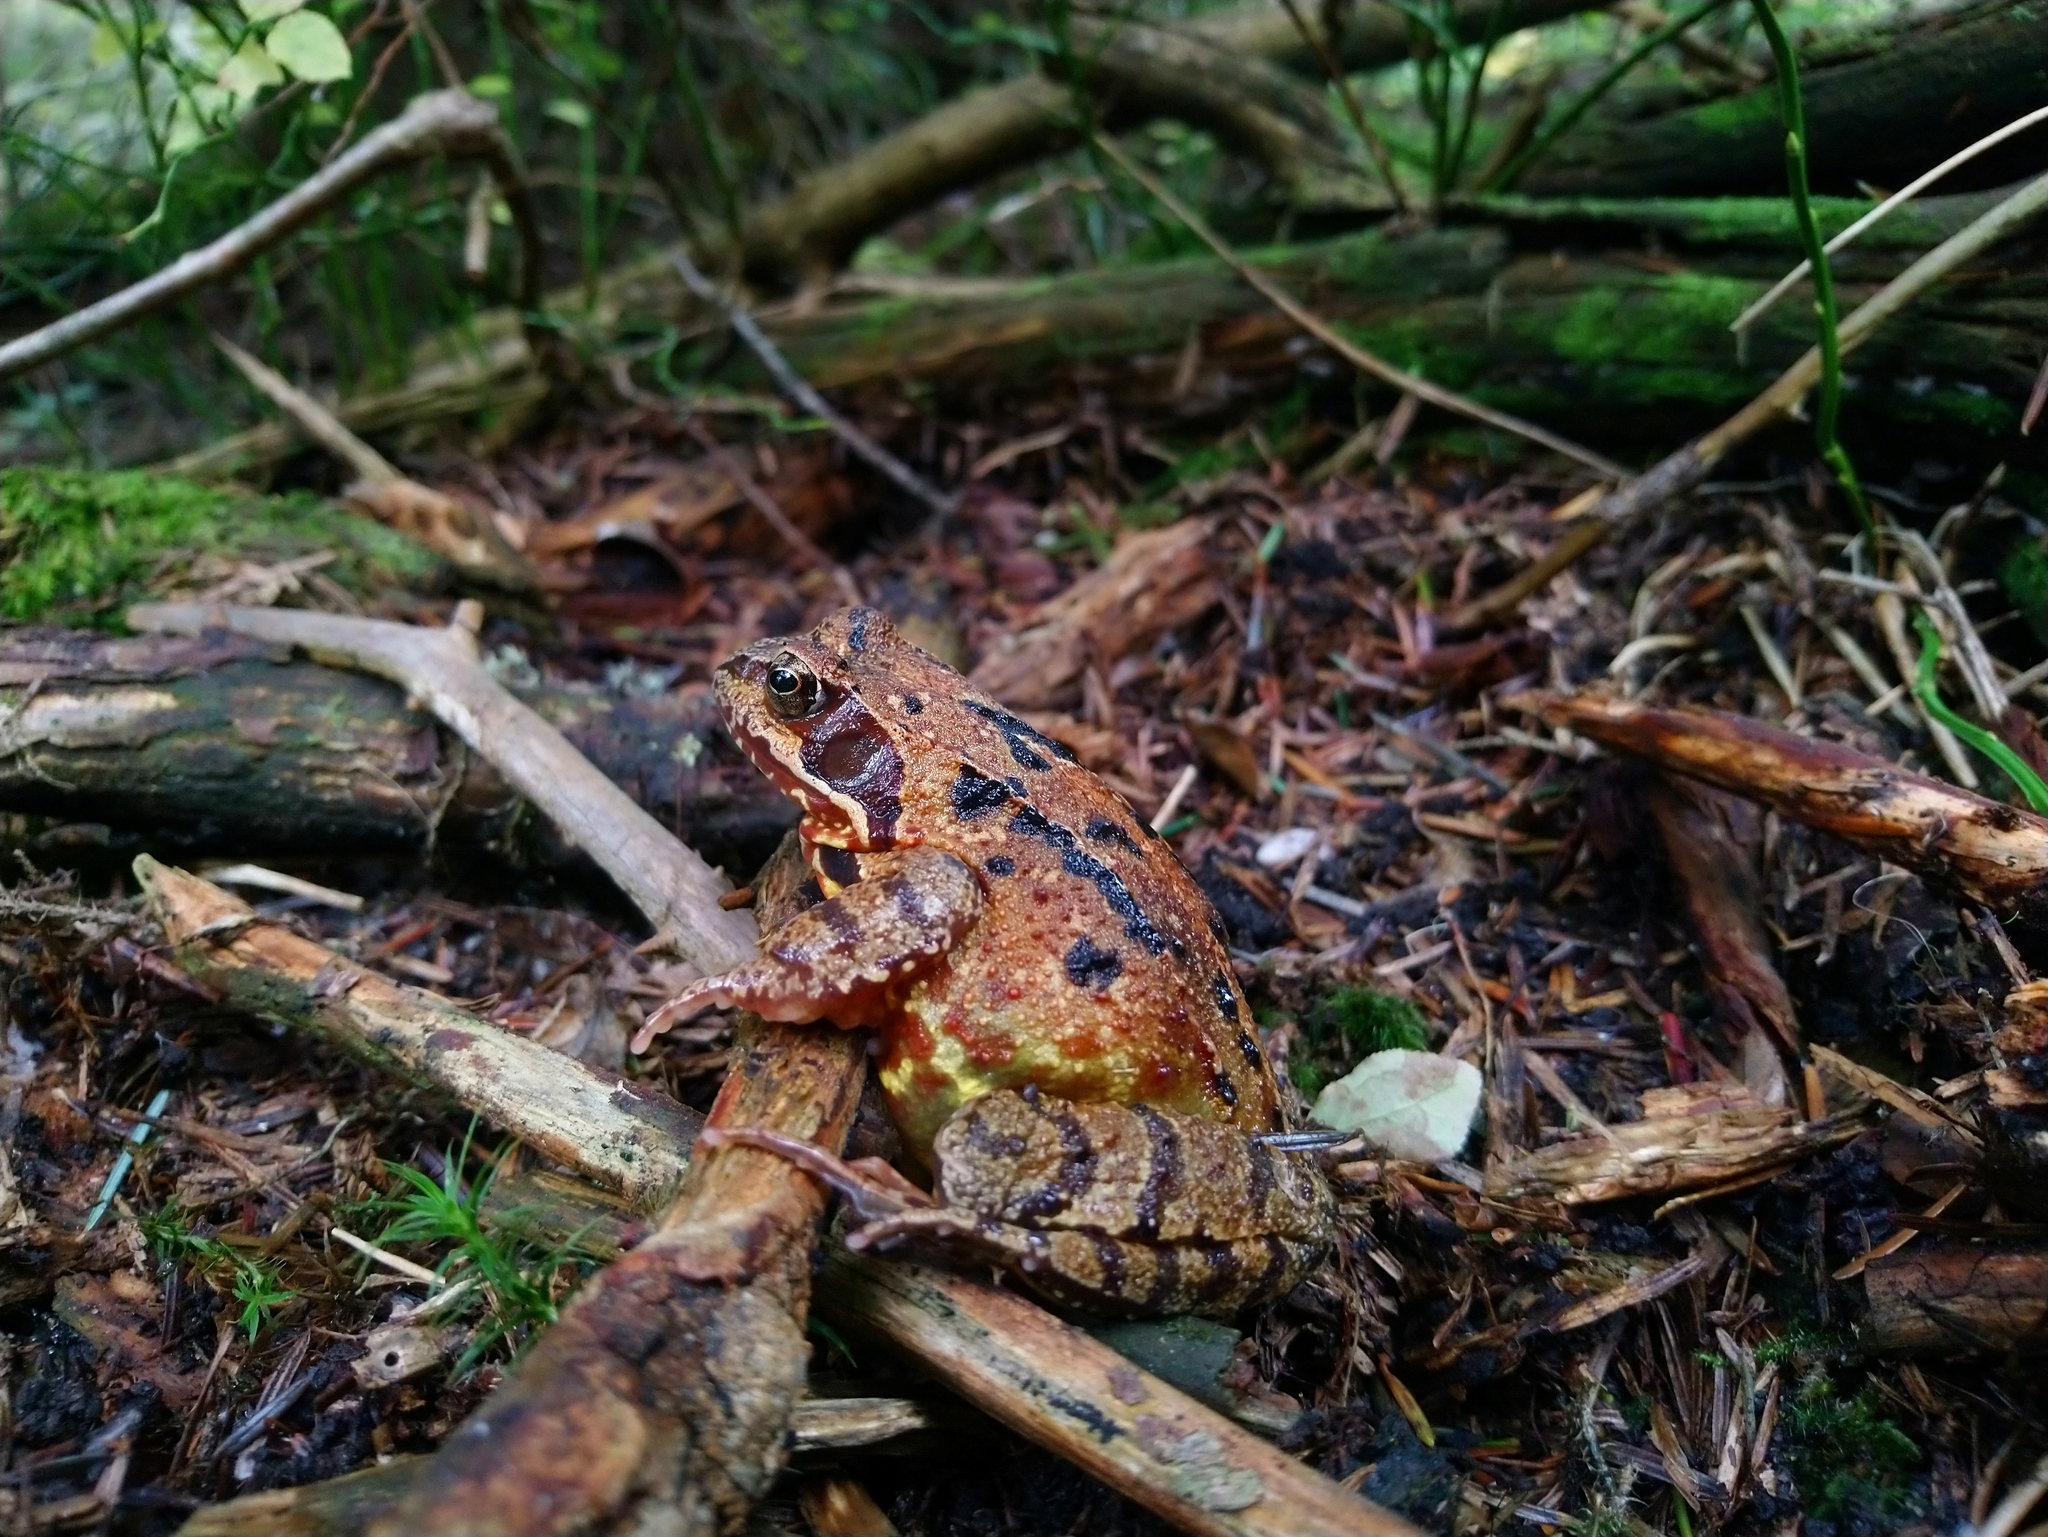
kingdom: Animalia
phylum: Chordata
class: Amphibia
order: Anura
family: Ranidae
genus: Rana
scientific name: Rana temporaria
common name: Common frog
